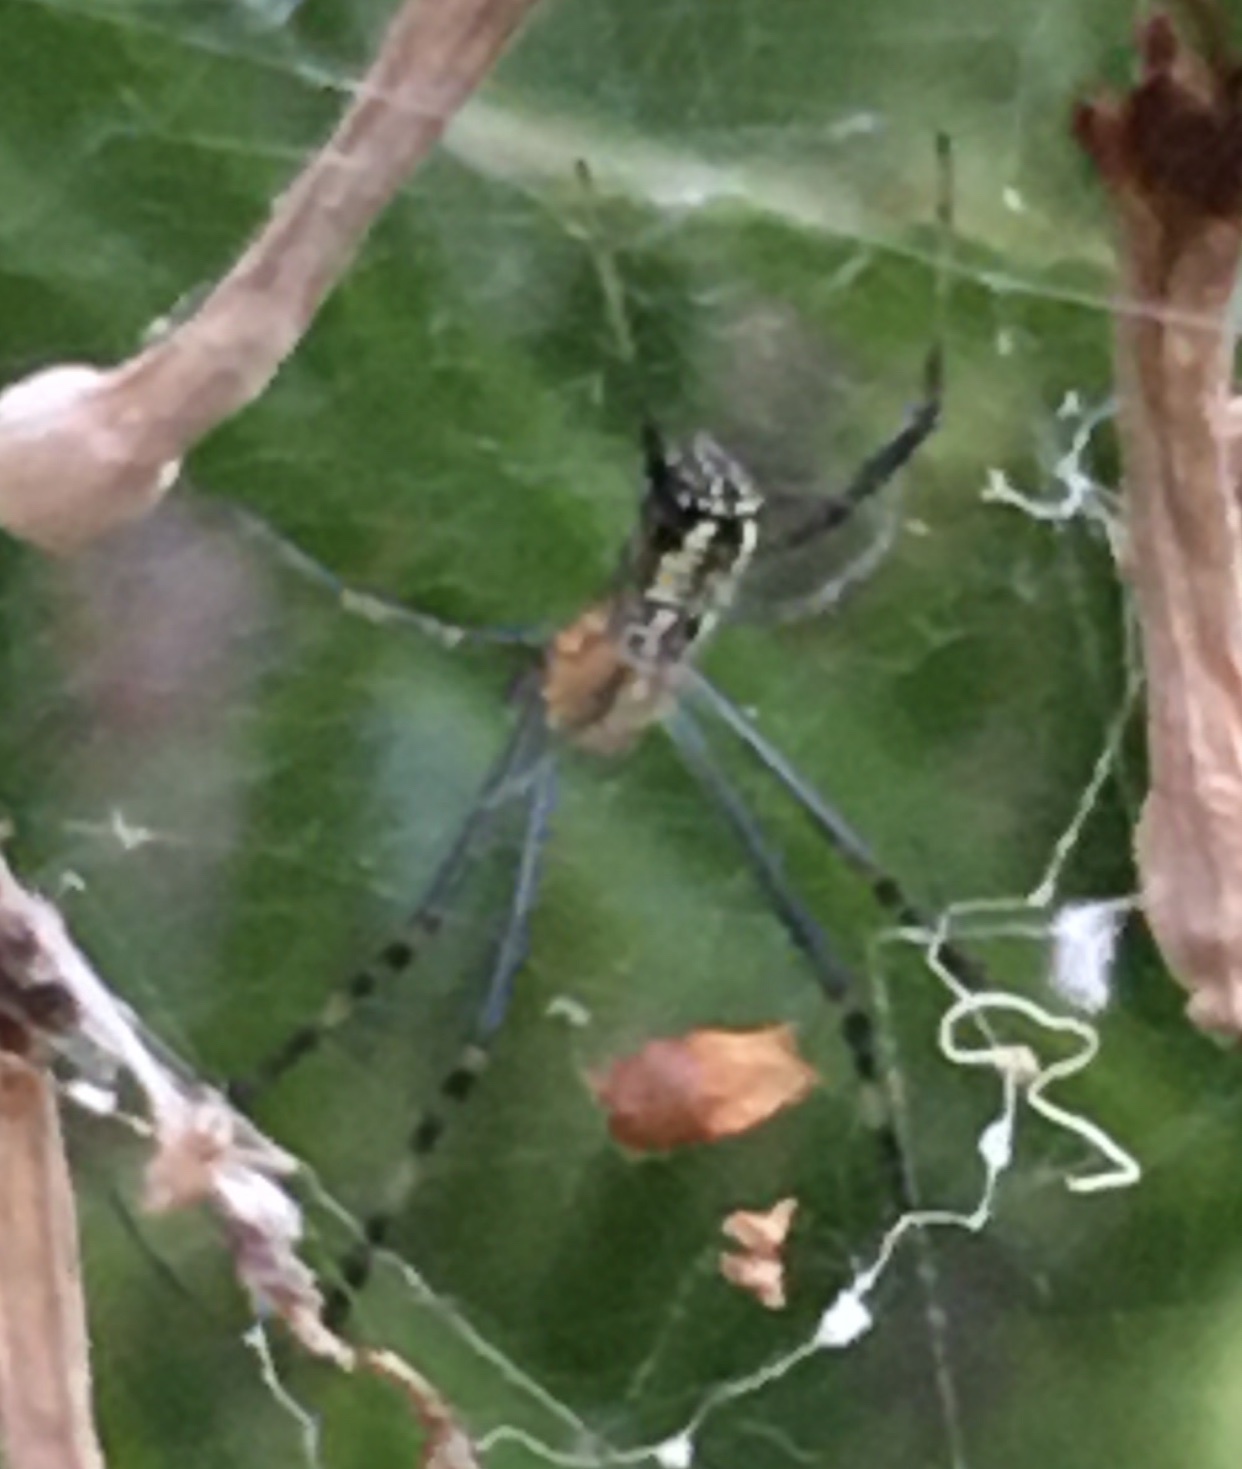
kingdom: Animalia
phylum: Arthropoda
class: Arachnida
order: Araneae
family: Araneidae
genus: Trichonephila
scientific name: Trichonephila senegalensis
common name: Banded golden orb weaver
